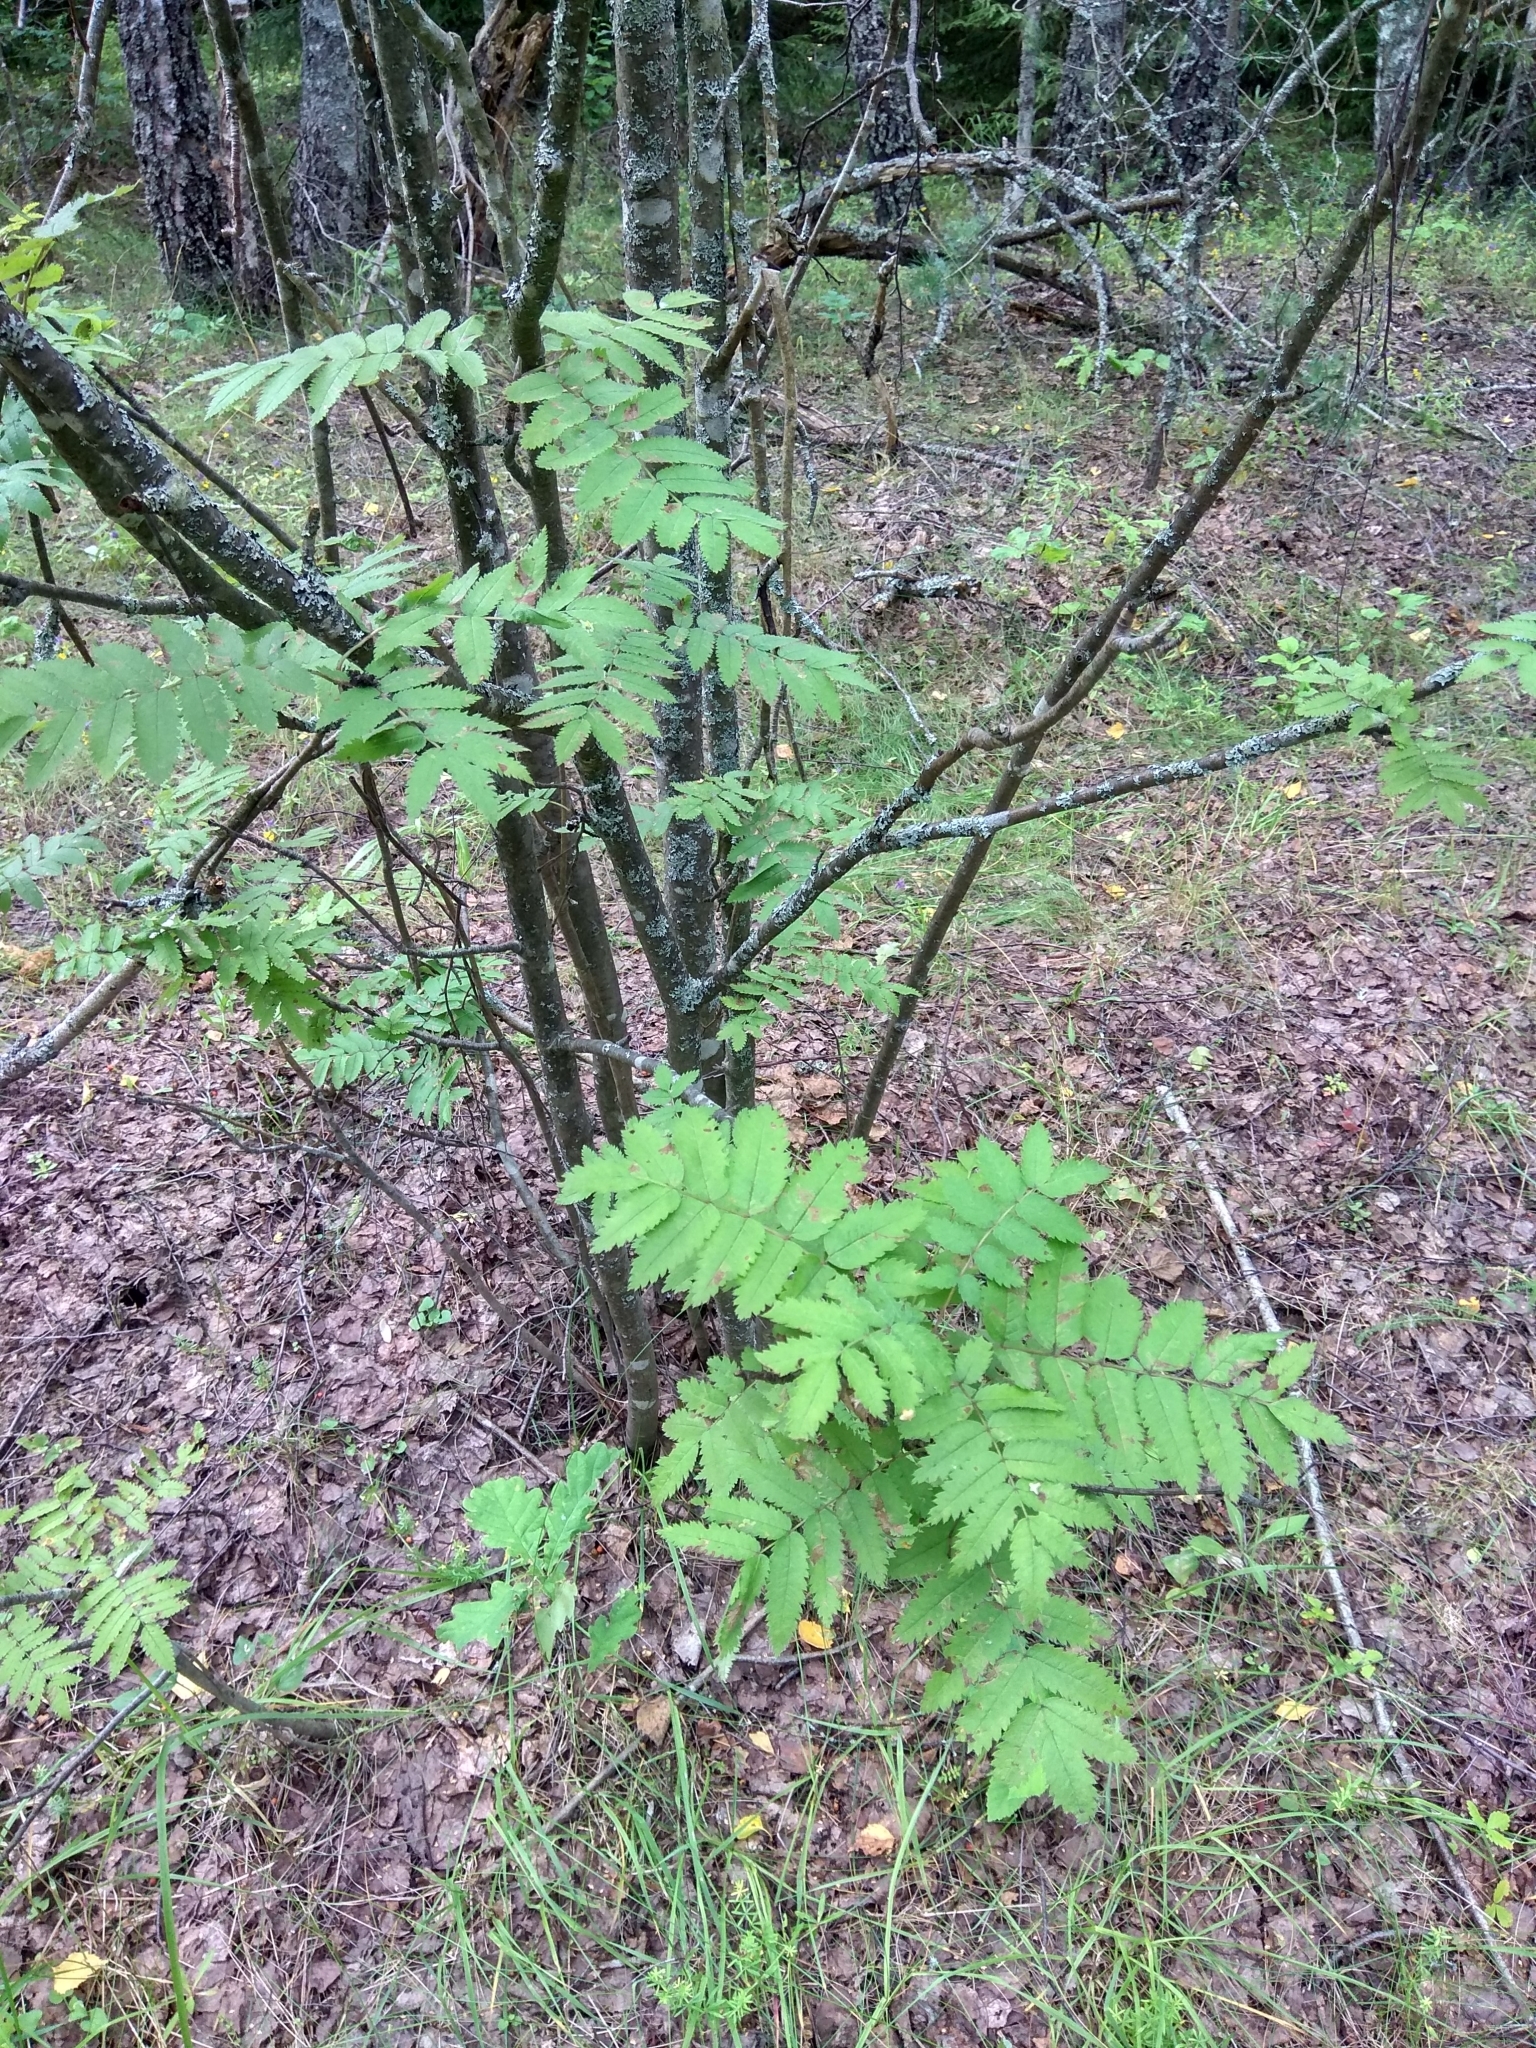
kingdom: Plantae
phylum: Tracheophyta
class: Magnoliopsida
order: Rosales
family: Rosaceae
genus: Sorbus
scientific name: Sorbus aucuparia
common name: Rowan
